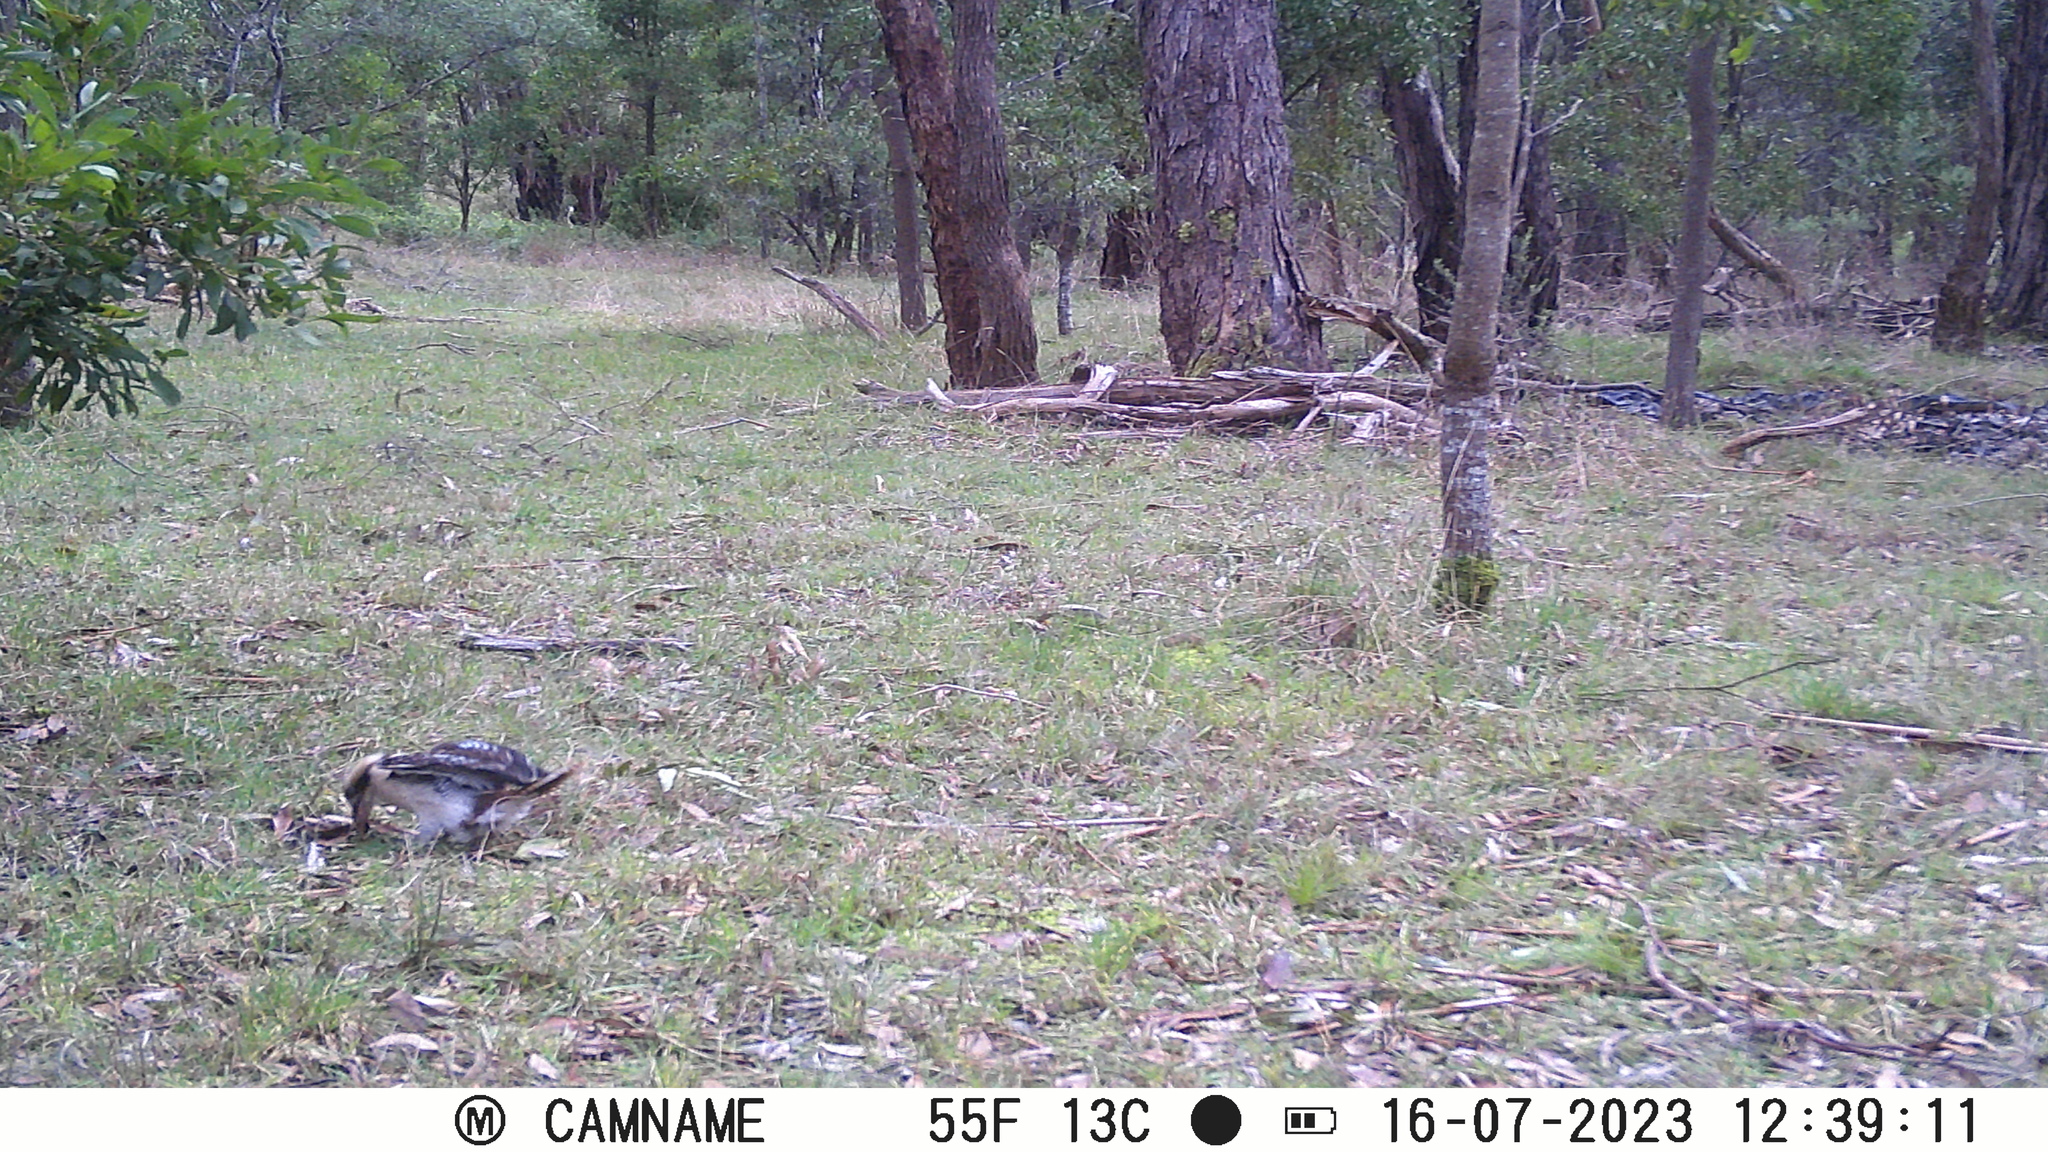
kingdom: Animalia
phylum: Chordata
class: Aves
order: Coraciiformes
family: Alcedinidae
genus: Dacelo
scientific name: Dacelo novaeguineae
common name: Laughing kookaburra
